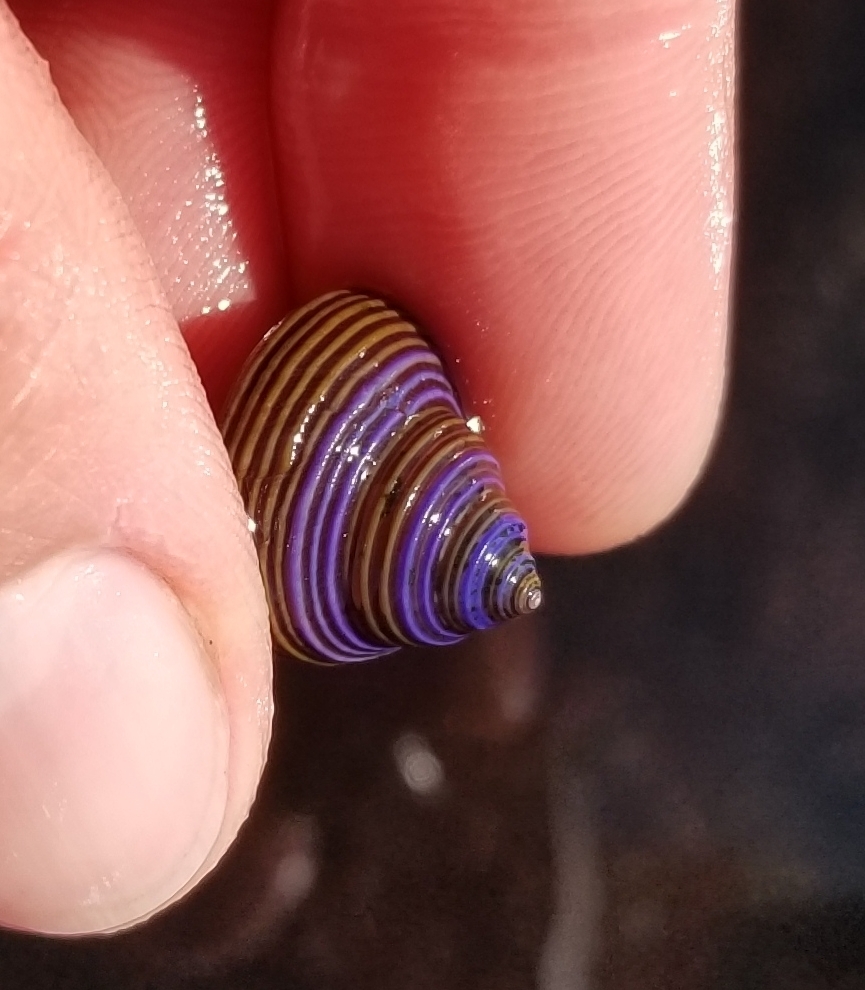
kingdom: Animalia
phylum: Mollusca
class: Gastropoda
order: Trochida
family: Calliostomatidae
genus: Calliostoma
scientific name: Calliostoma ligatum
